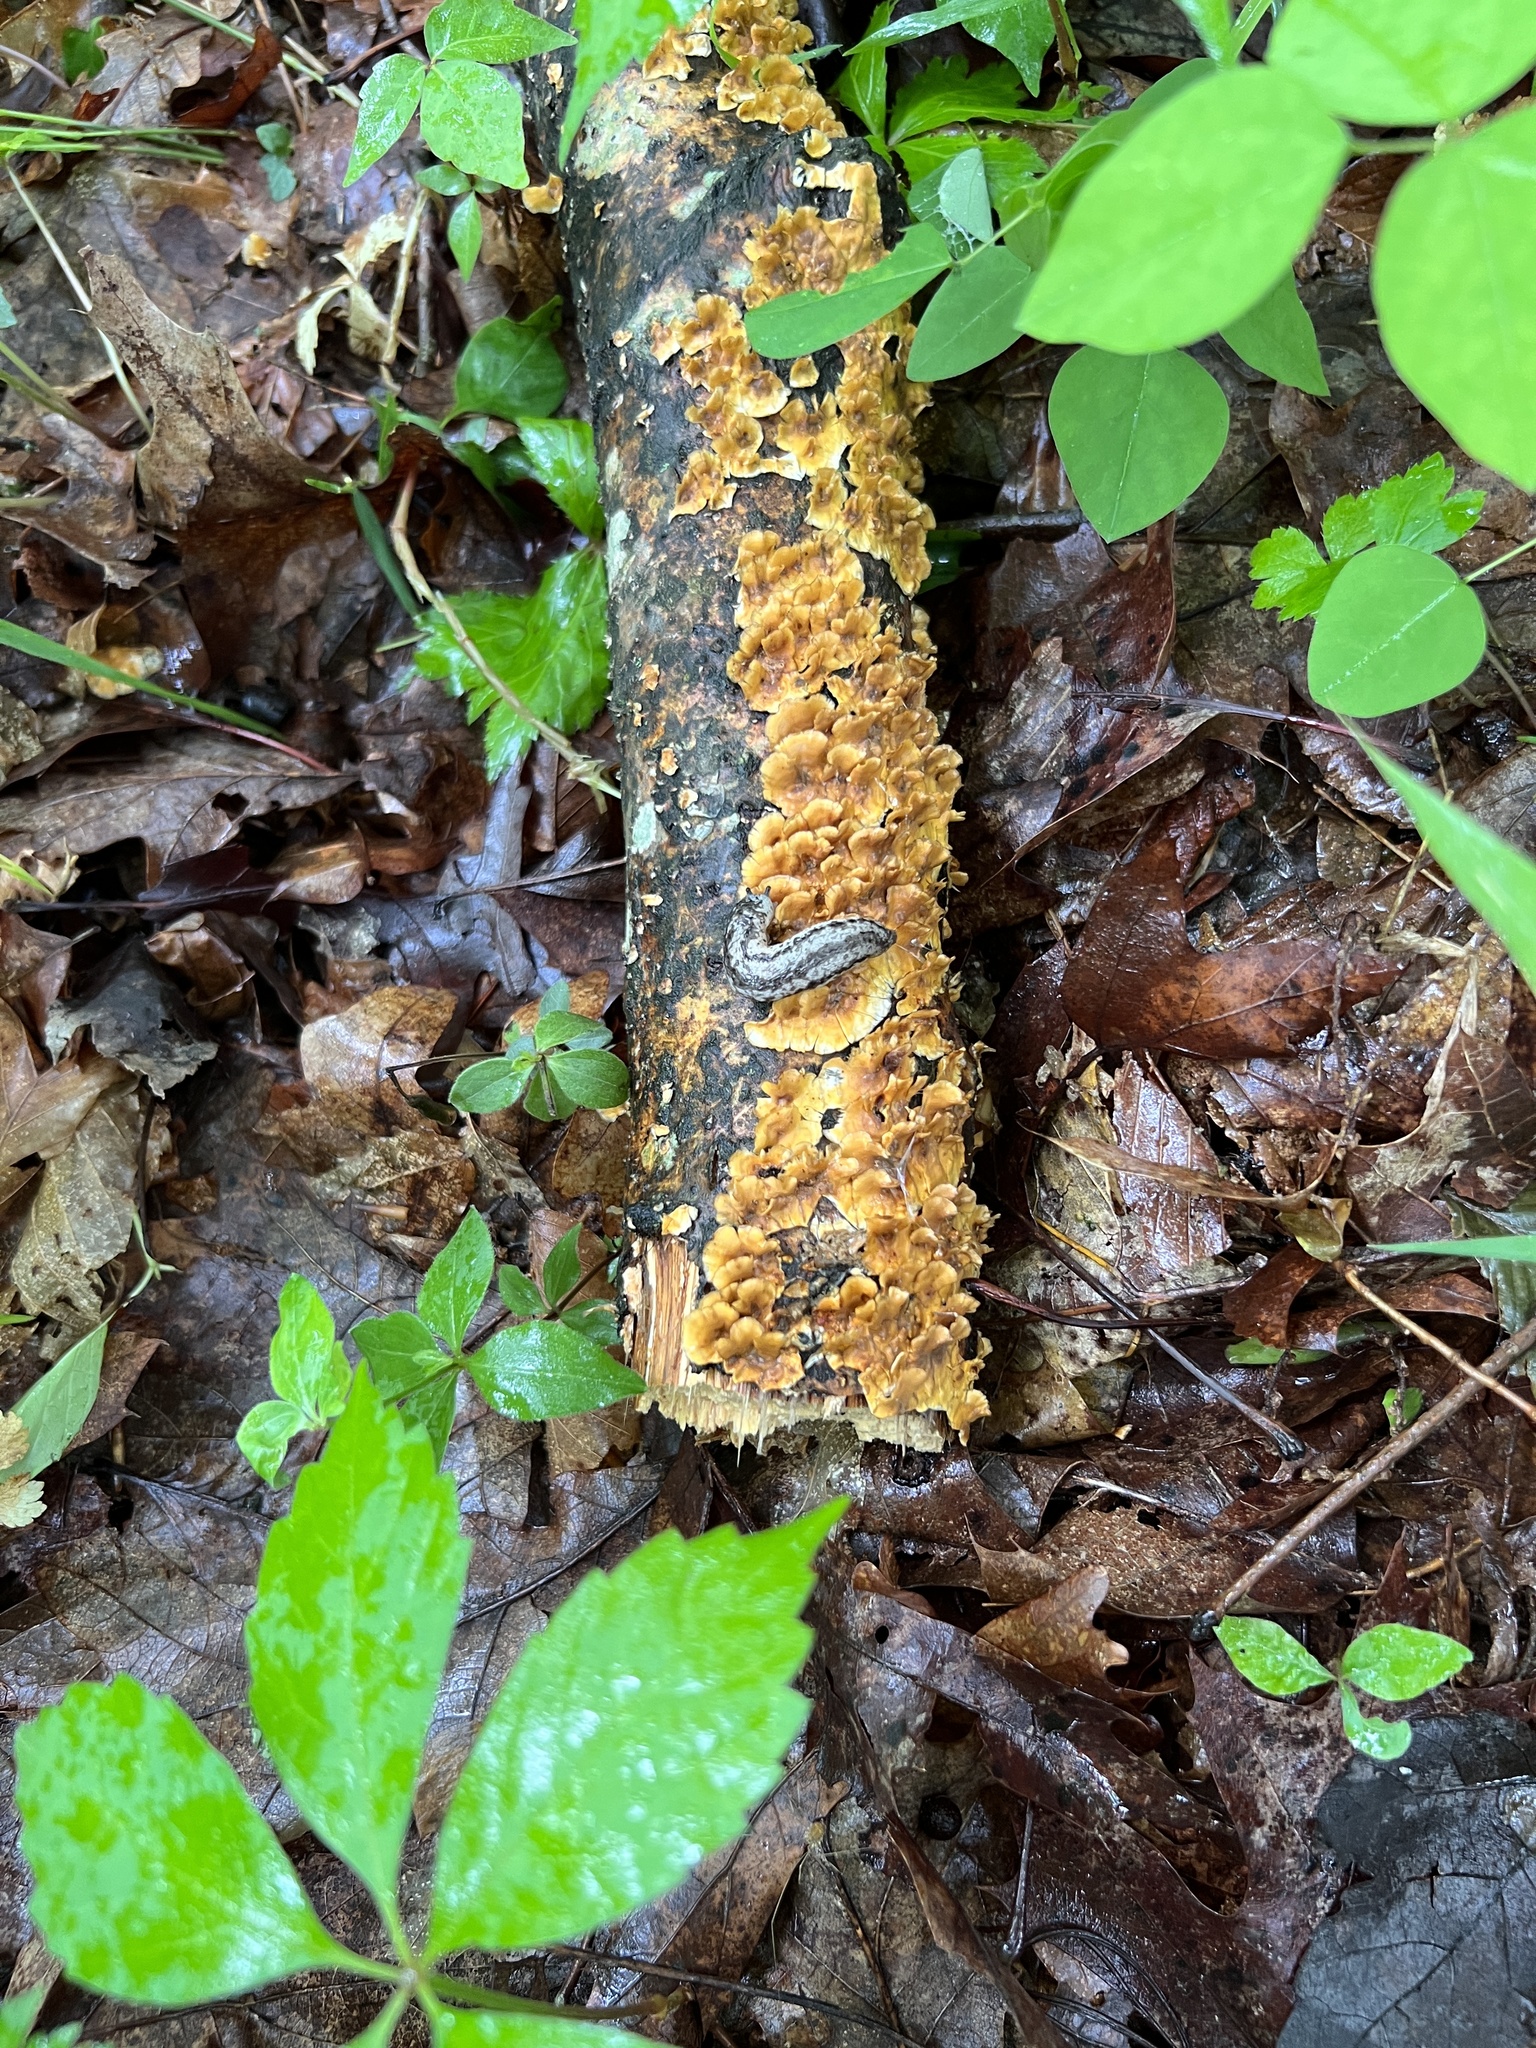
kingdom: Fungi
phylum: Basidiomycota
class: Agaricomycetes
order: Russulales
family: Stereaceae
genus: Stereum
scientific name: Stereum complicatum
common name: Crowded parchment
